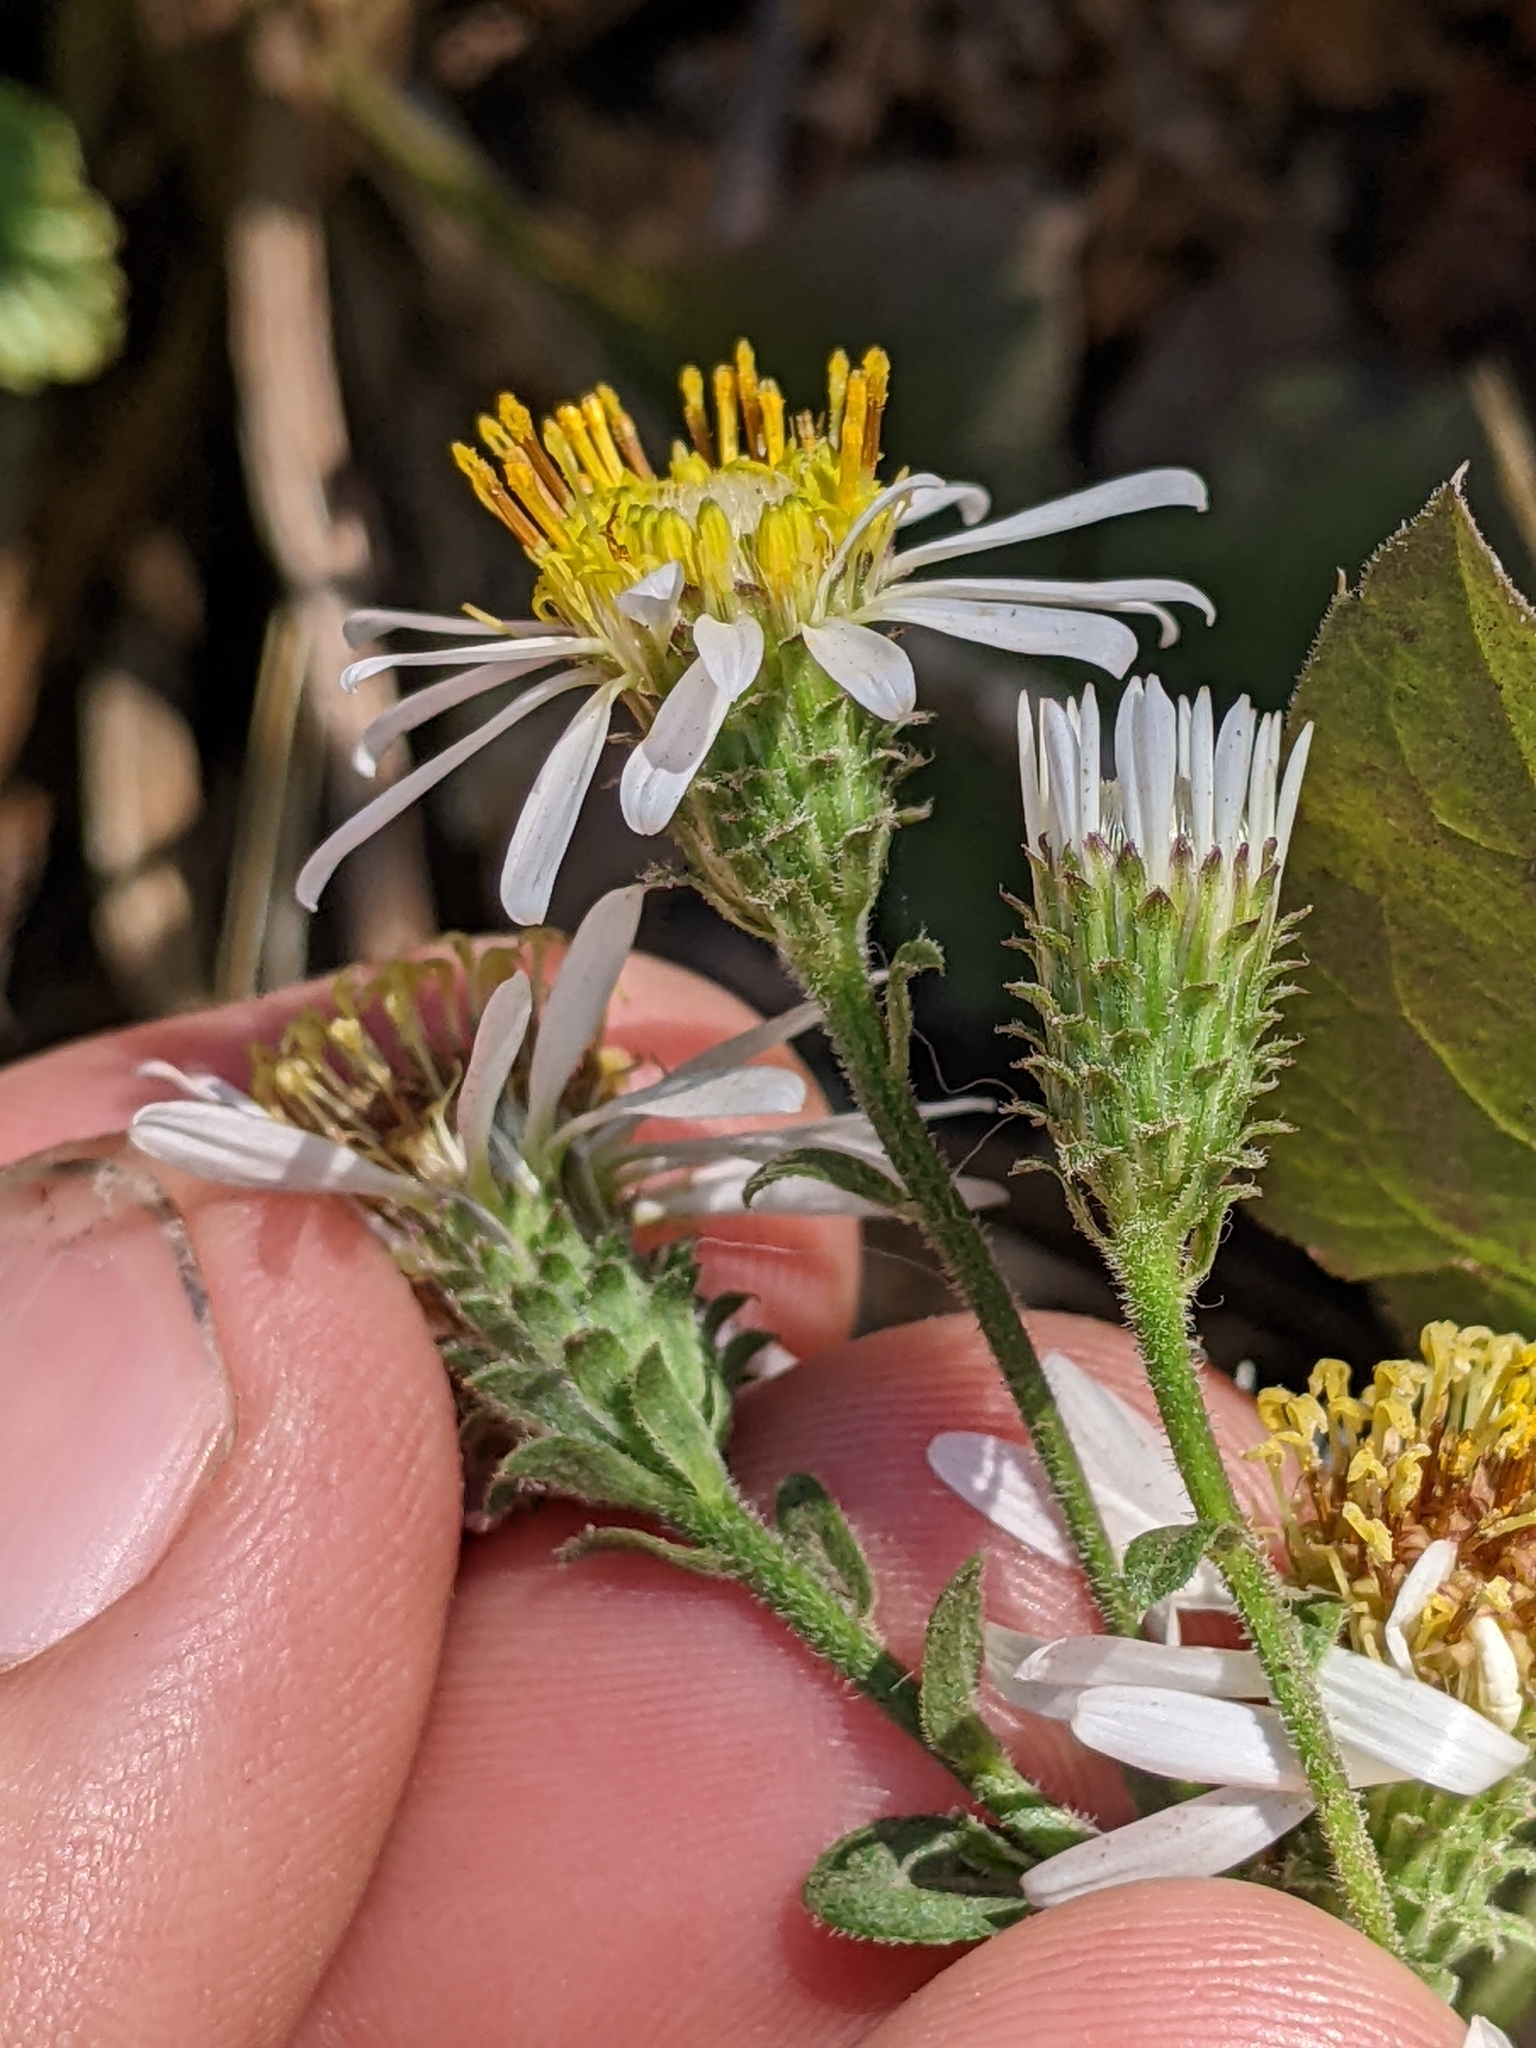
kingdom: Plantae
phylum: Tracheophyta
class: Magnoliopsida
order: Asterales
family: Asteraceae
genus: Eurybia
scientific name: Eurybia radulina
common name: Rough-leaved aster
